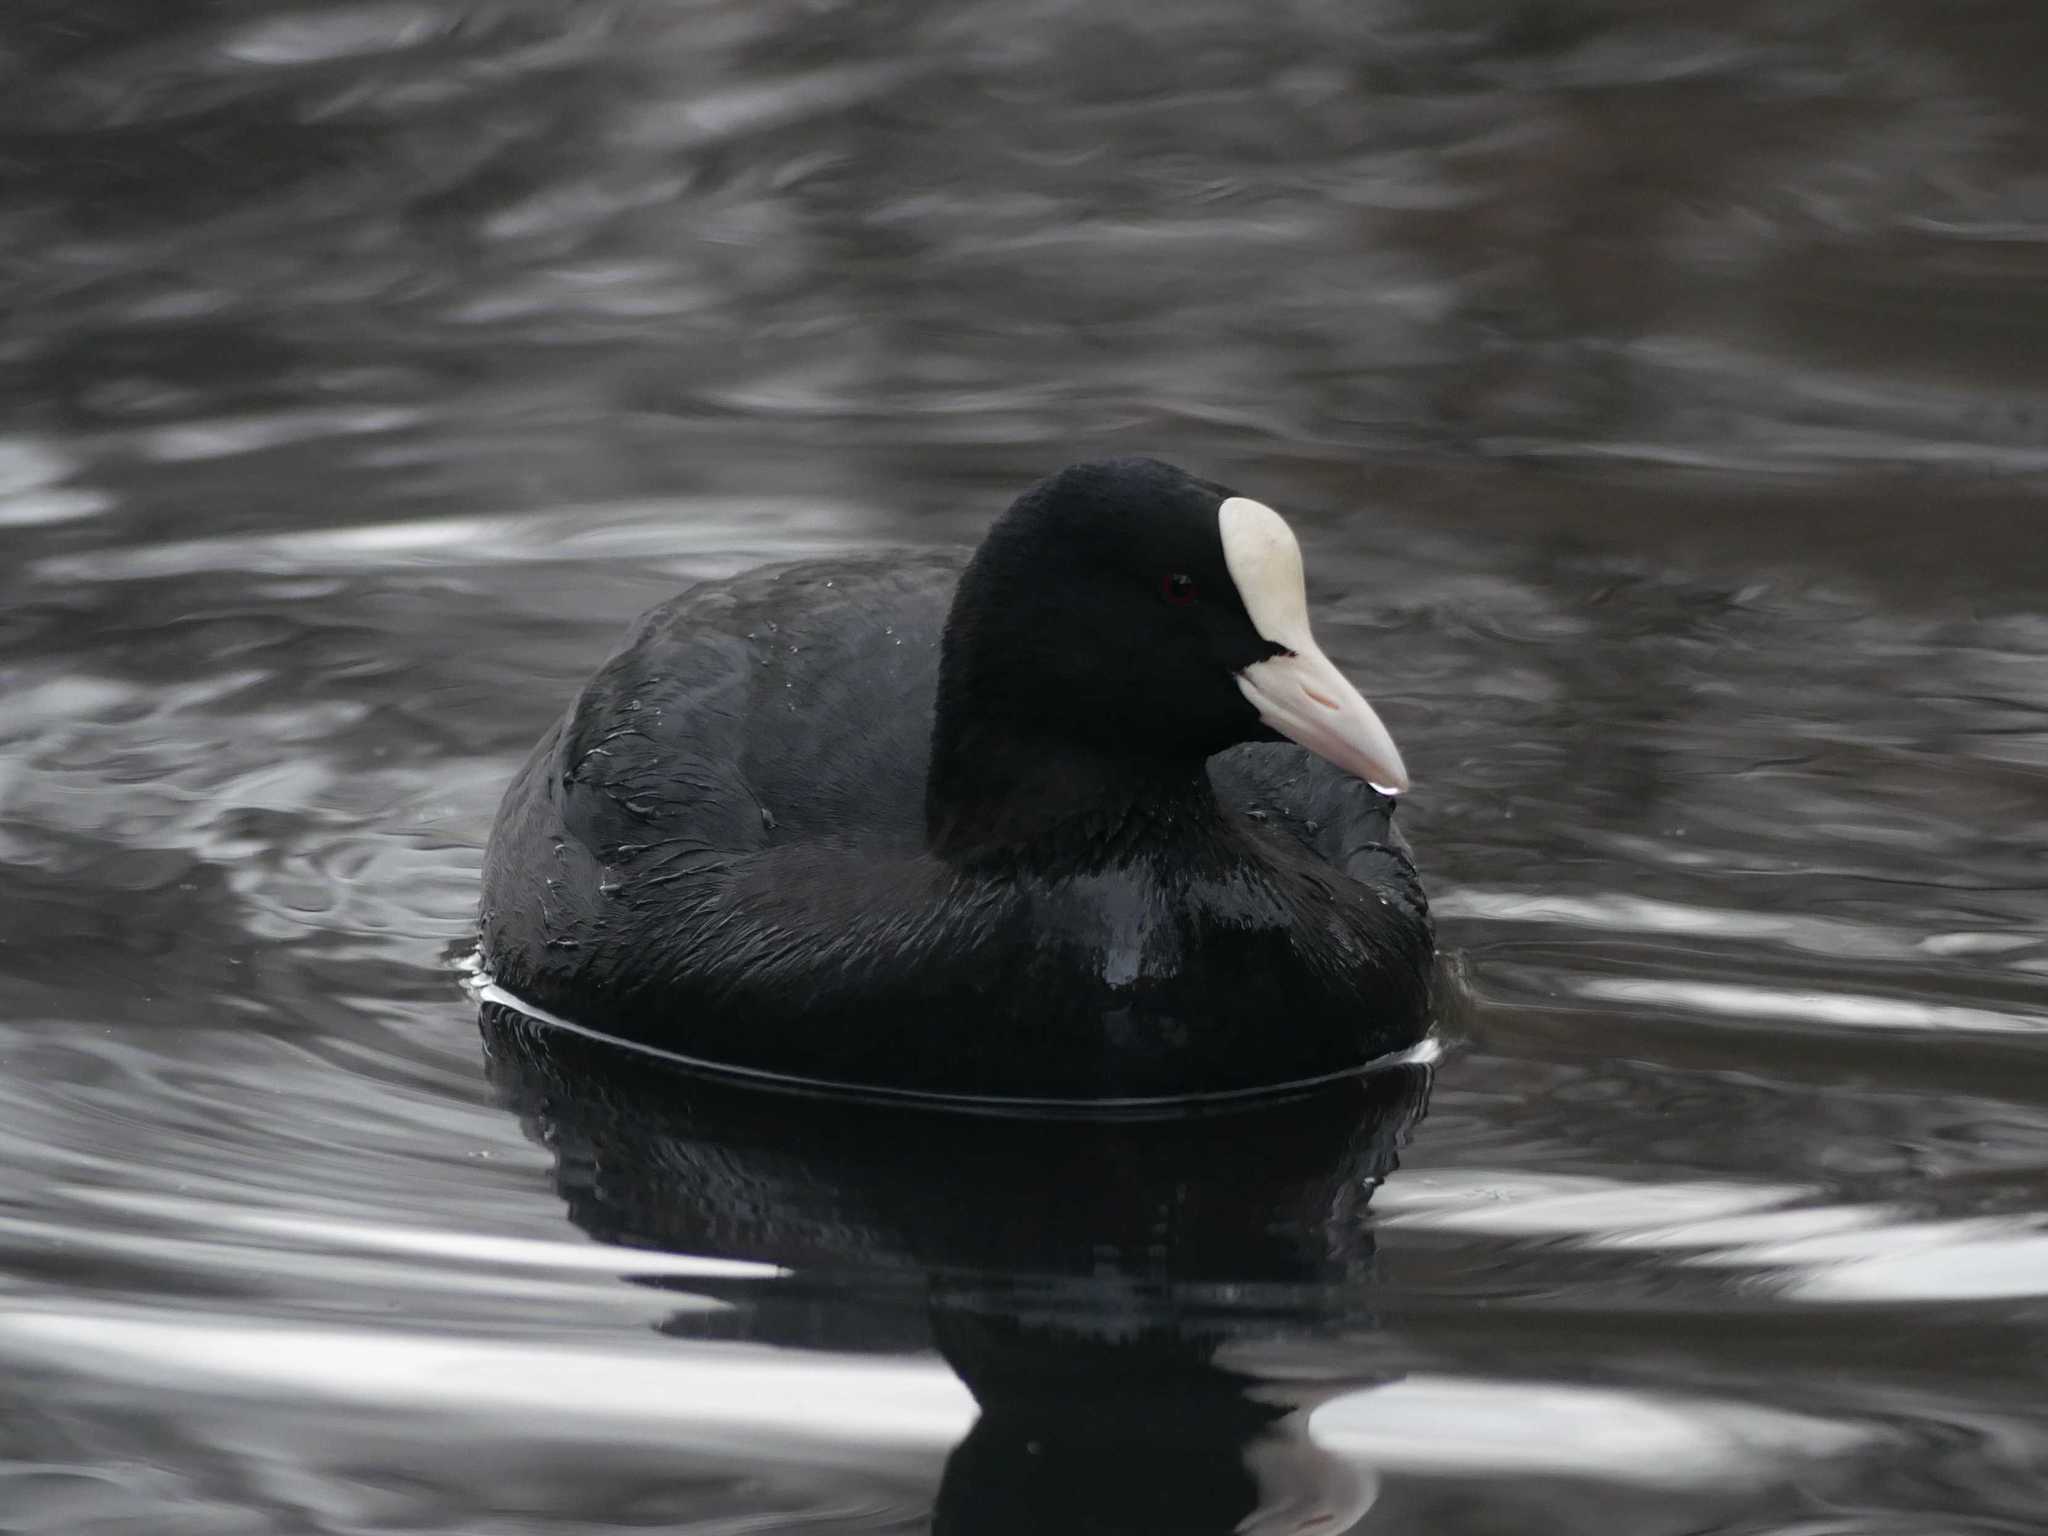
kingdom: Animalia
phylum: Chordata
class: Aves
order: Gruiformes
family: Rallidae
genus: Fulica
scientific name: Fulica atra
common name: Eurasian coot
